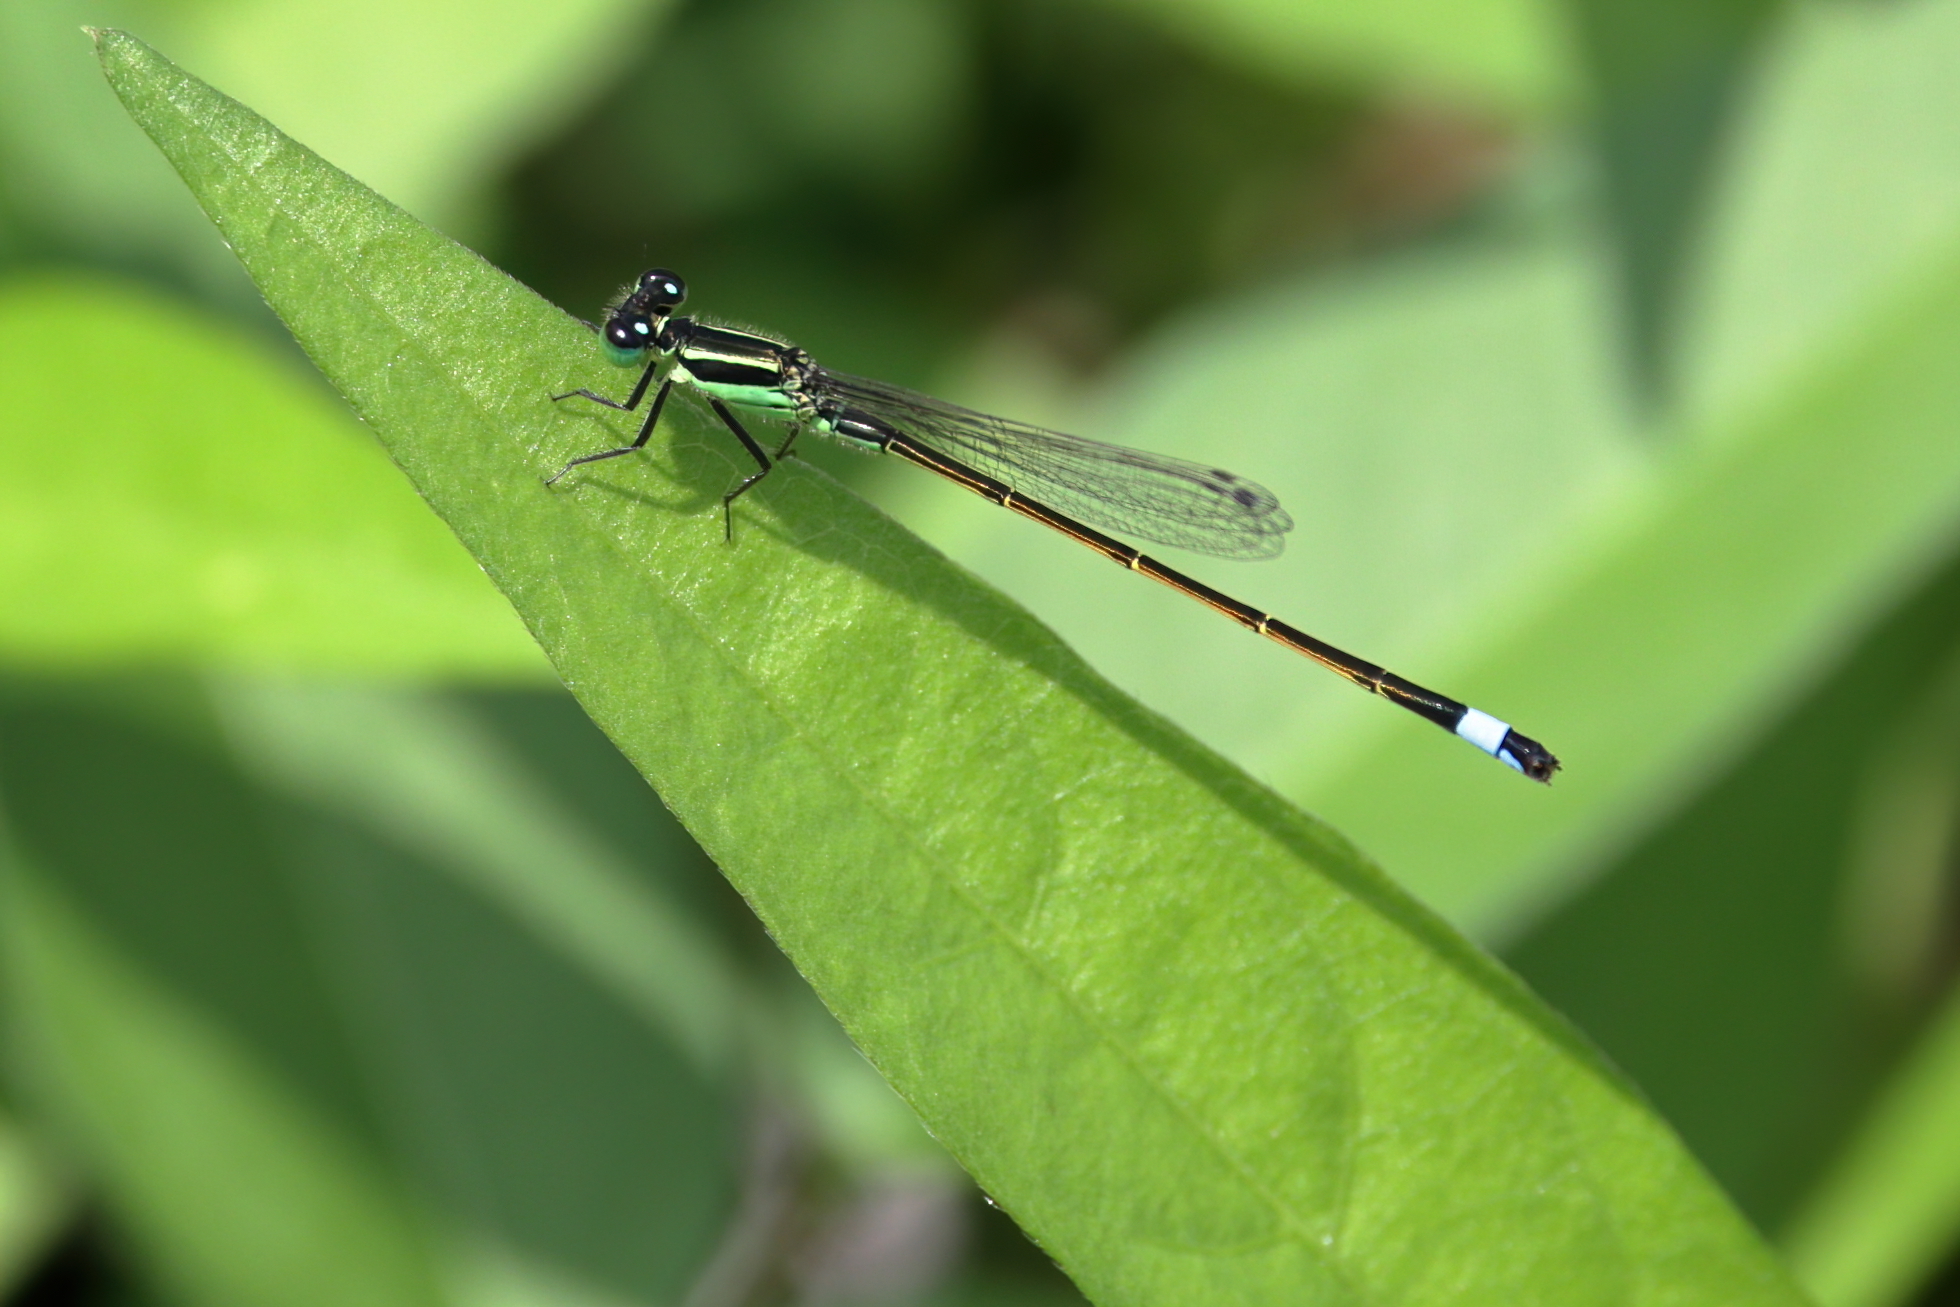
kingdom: Animalia
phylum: Arthropoda
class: Insecta
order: Odonata
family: Coenagrionidae
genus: Ischnura
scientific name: Ischnura ramburii
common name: Rambur's forktail
